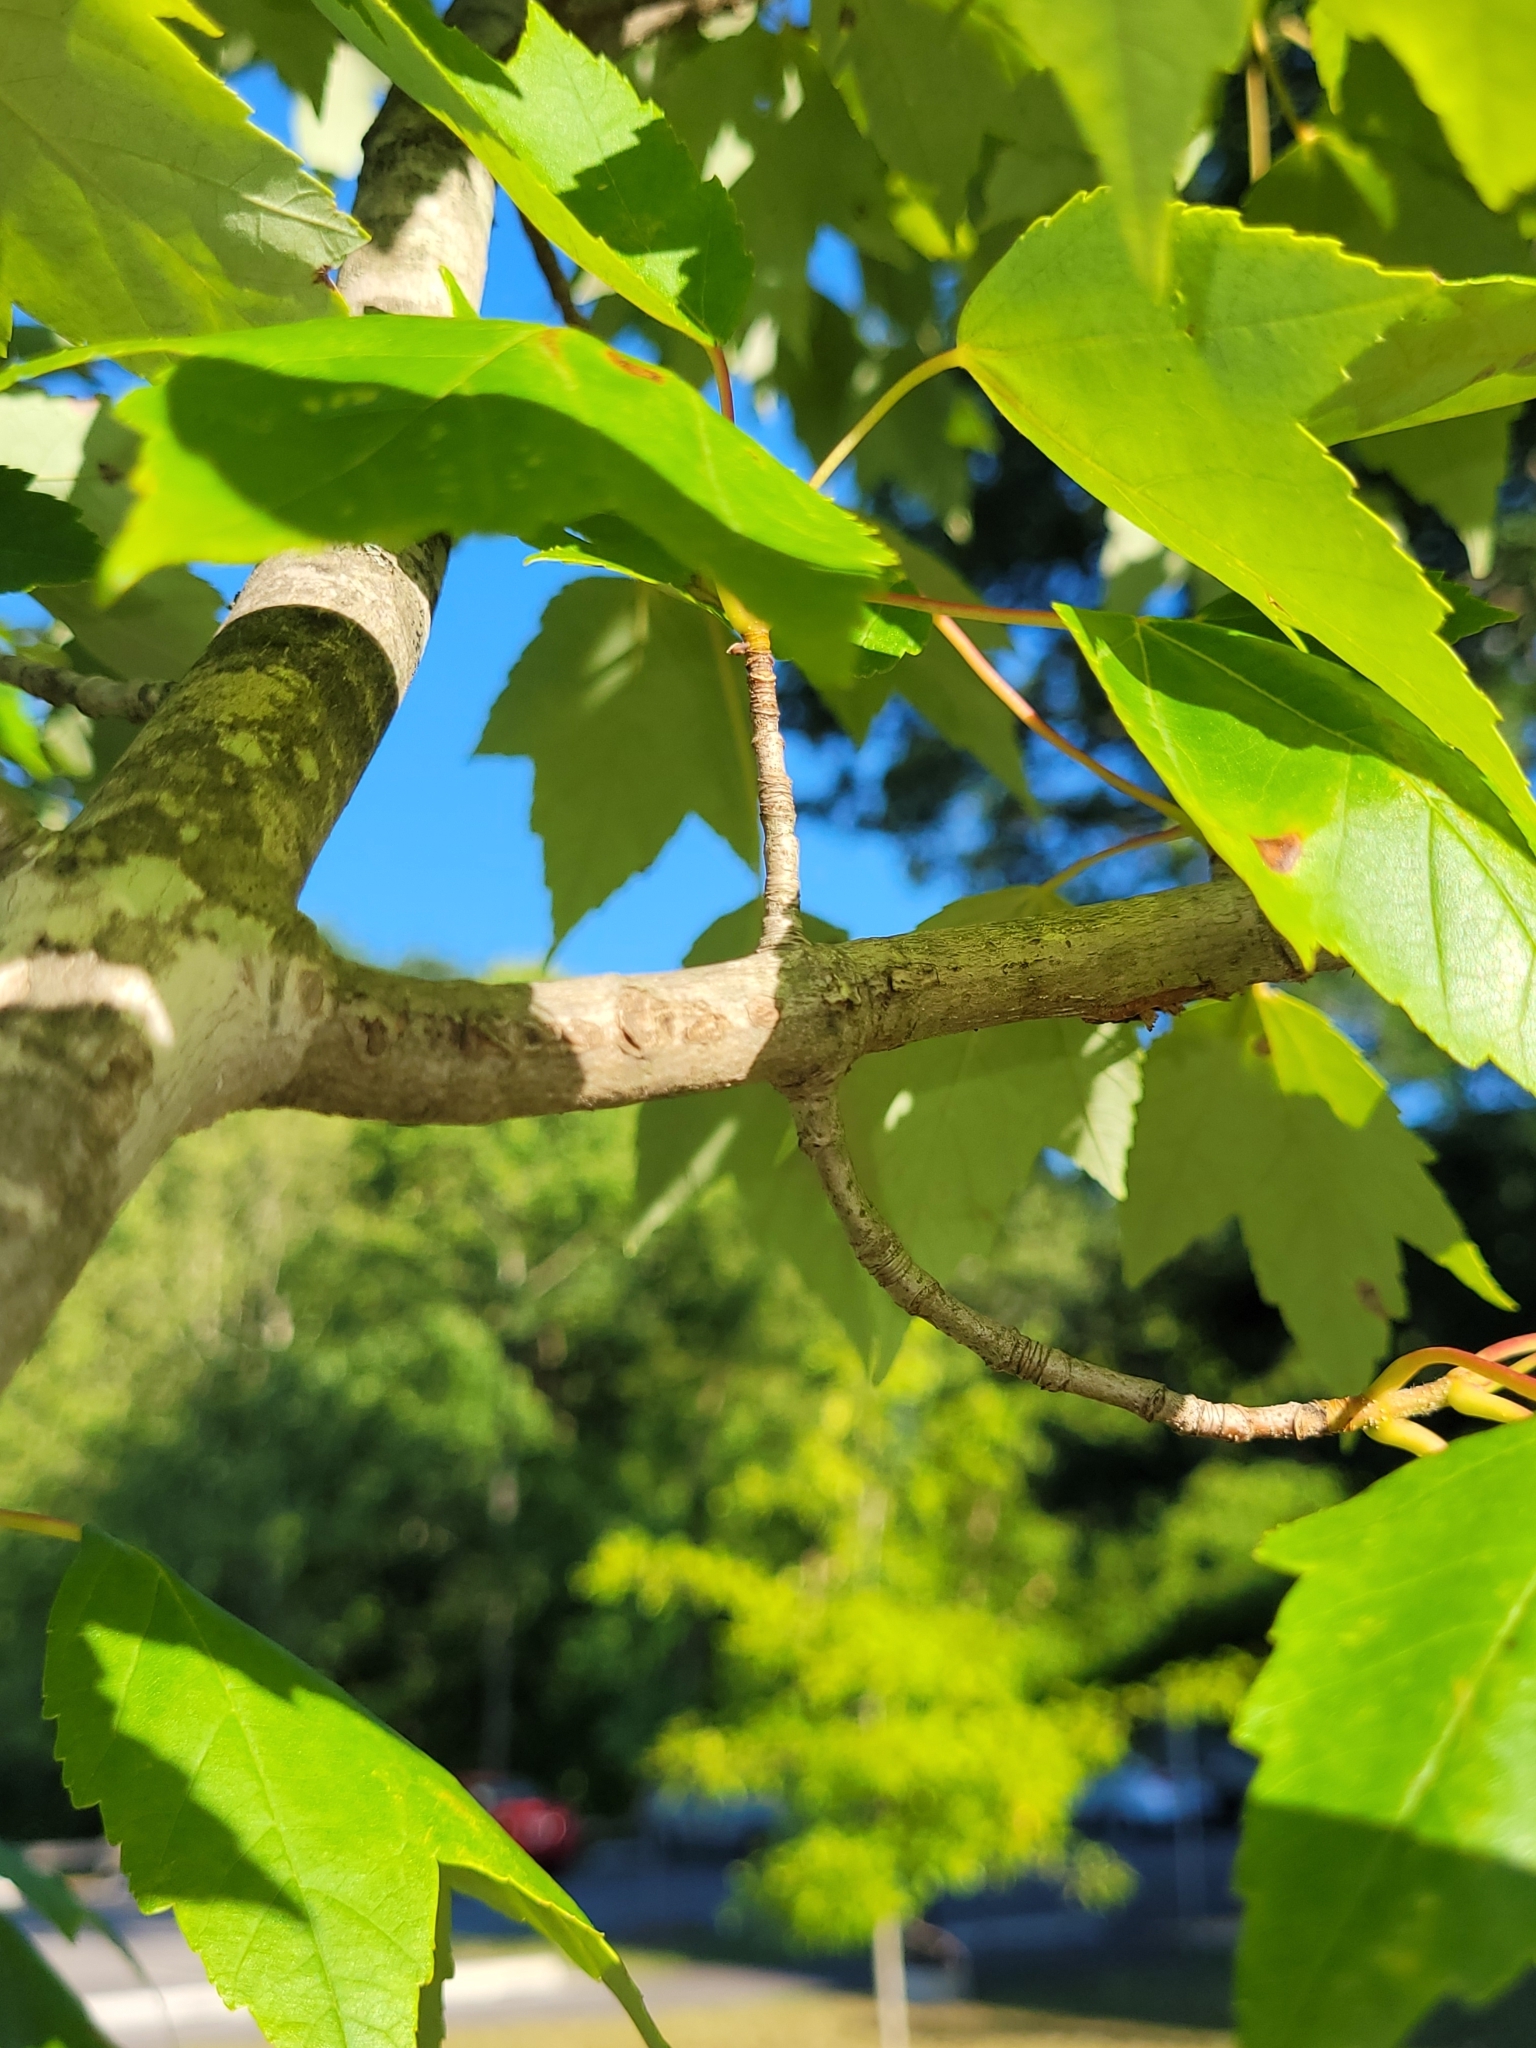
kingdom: Plantae
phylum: Tracheophyta
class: Magnoliopsida
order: Sapindales
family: Sapindaceae
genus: Acer
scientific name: Acer rubrum
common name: Red maple
